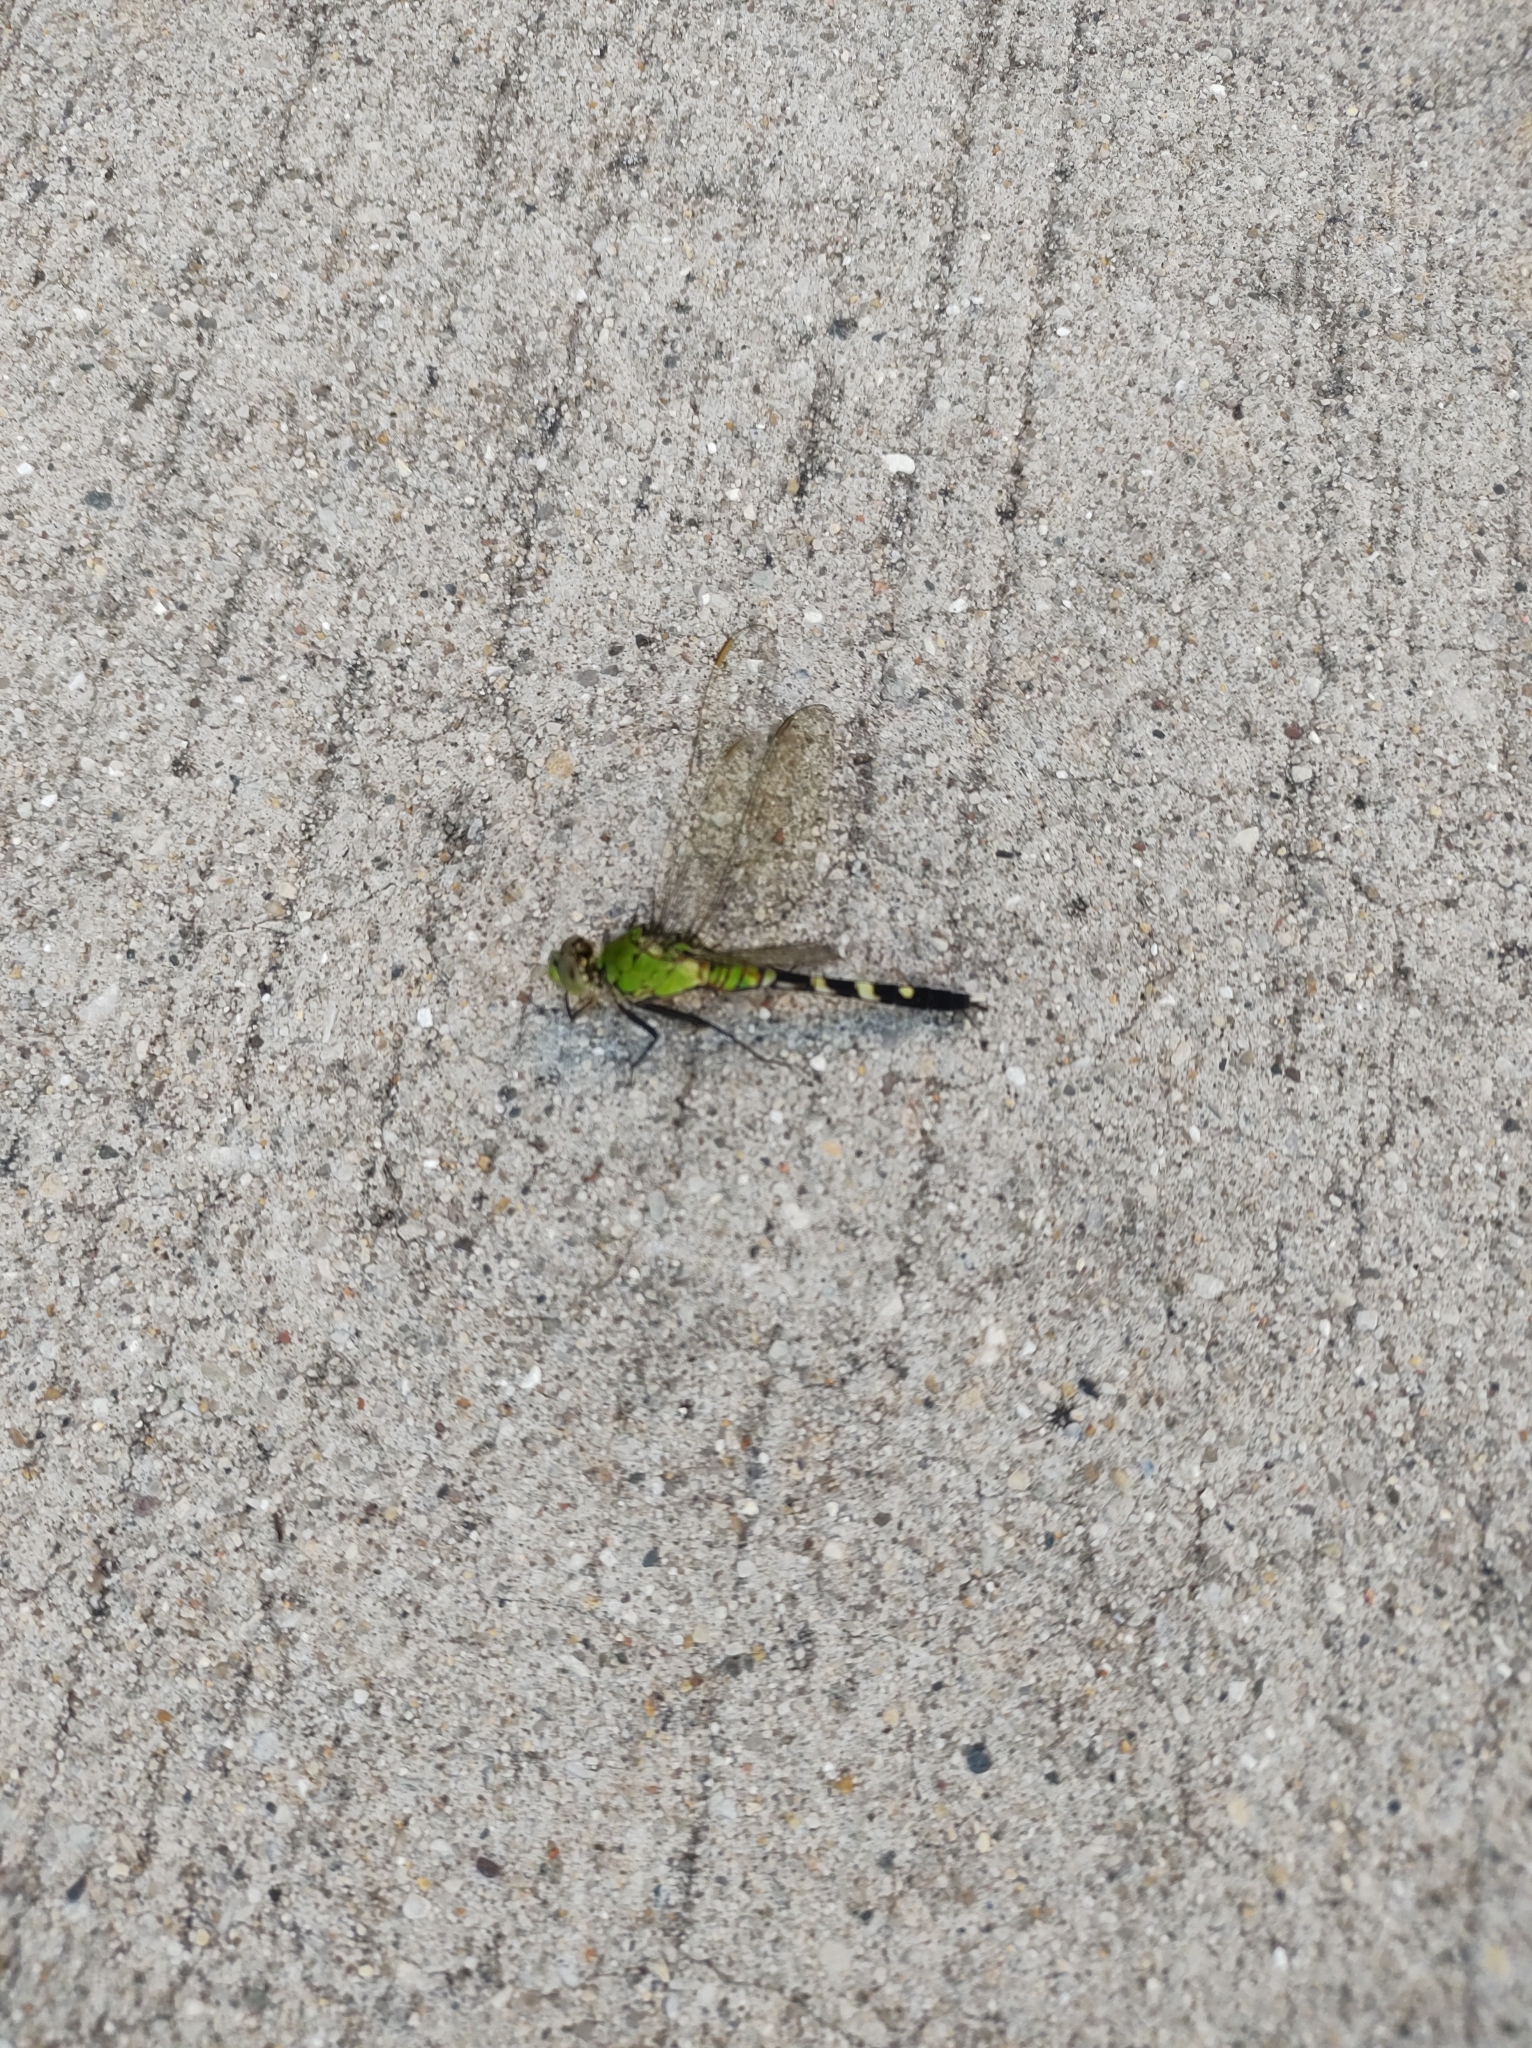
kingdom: Animalia
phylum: Arthropoda
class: Insecta
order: Odonata
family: Libellulidae
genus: Erythemis
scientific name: Erythemis simplicicollis
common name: Eastern pondhawk
